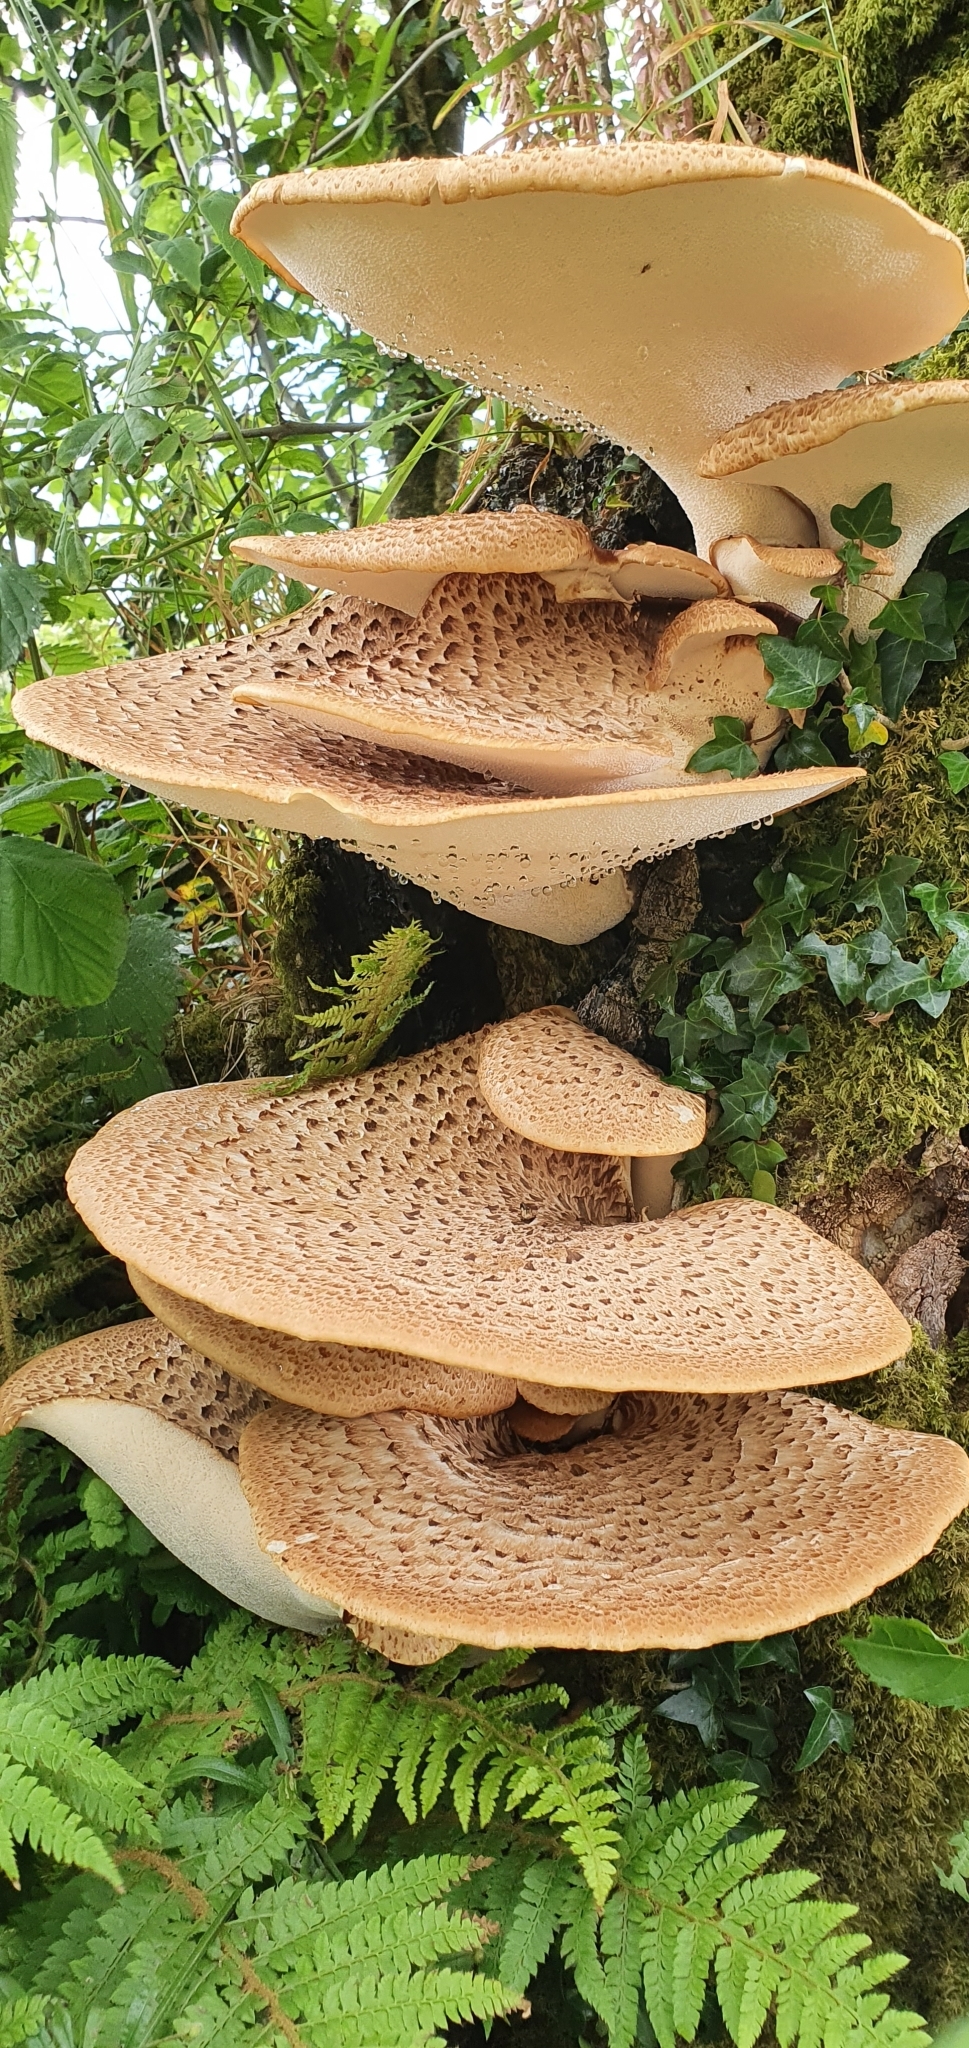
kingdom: Fungi
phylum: Basidiomycota
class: Agaricomycetes
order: Polyporales
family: Polyporaceae
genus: Cerioporus
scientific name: Cerioporus squamosus
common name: Dryad's saddle
